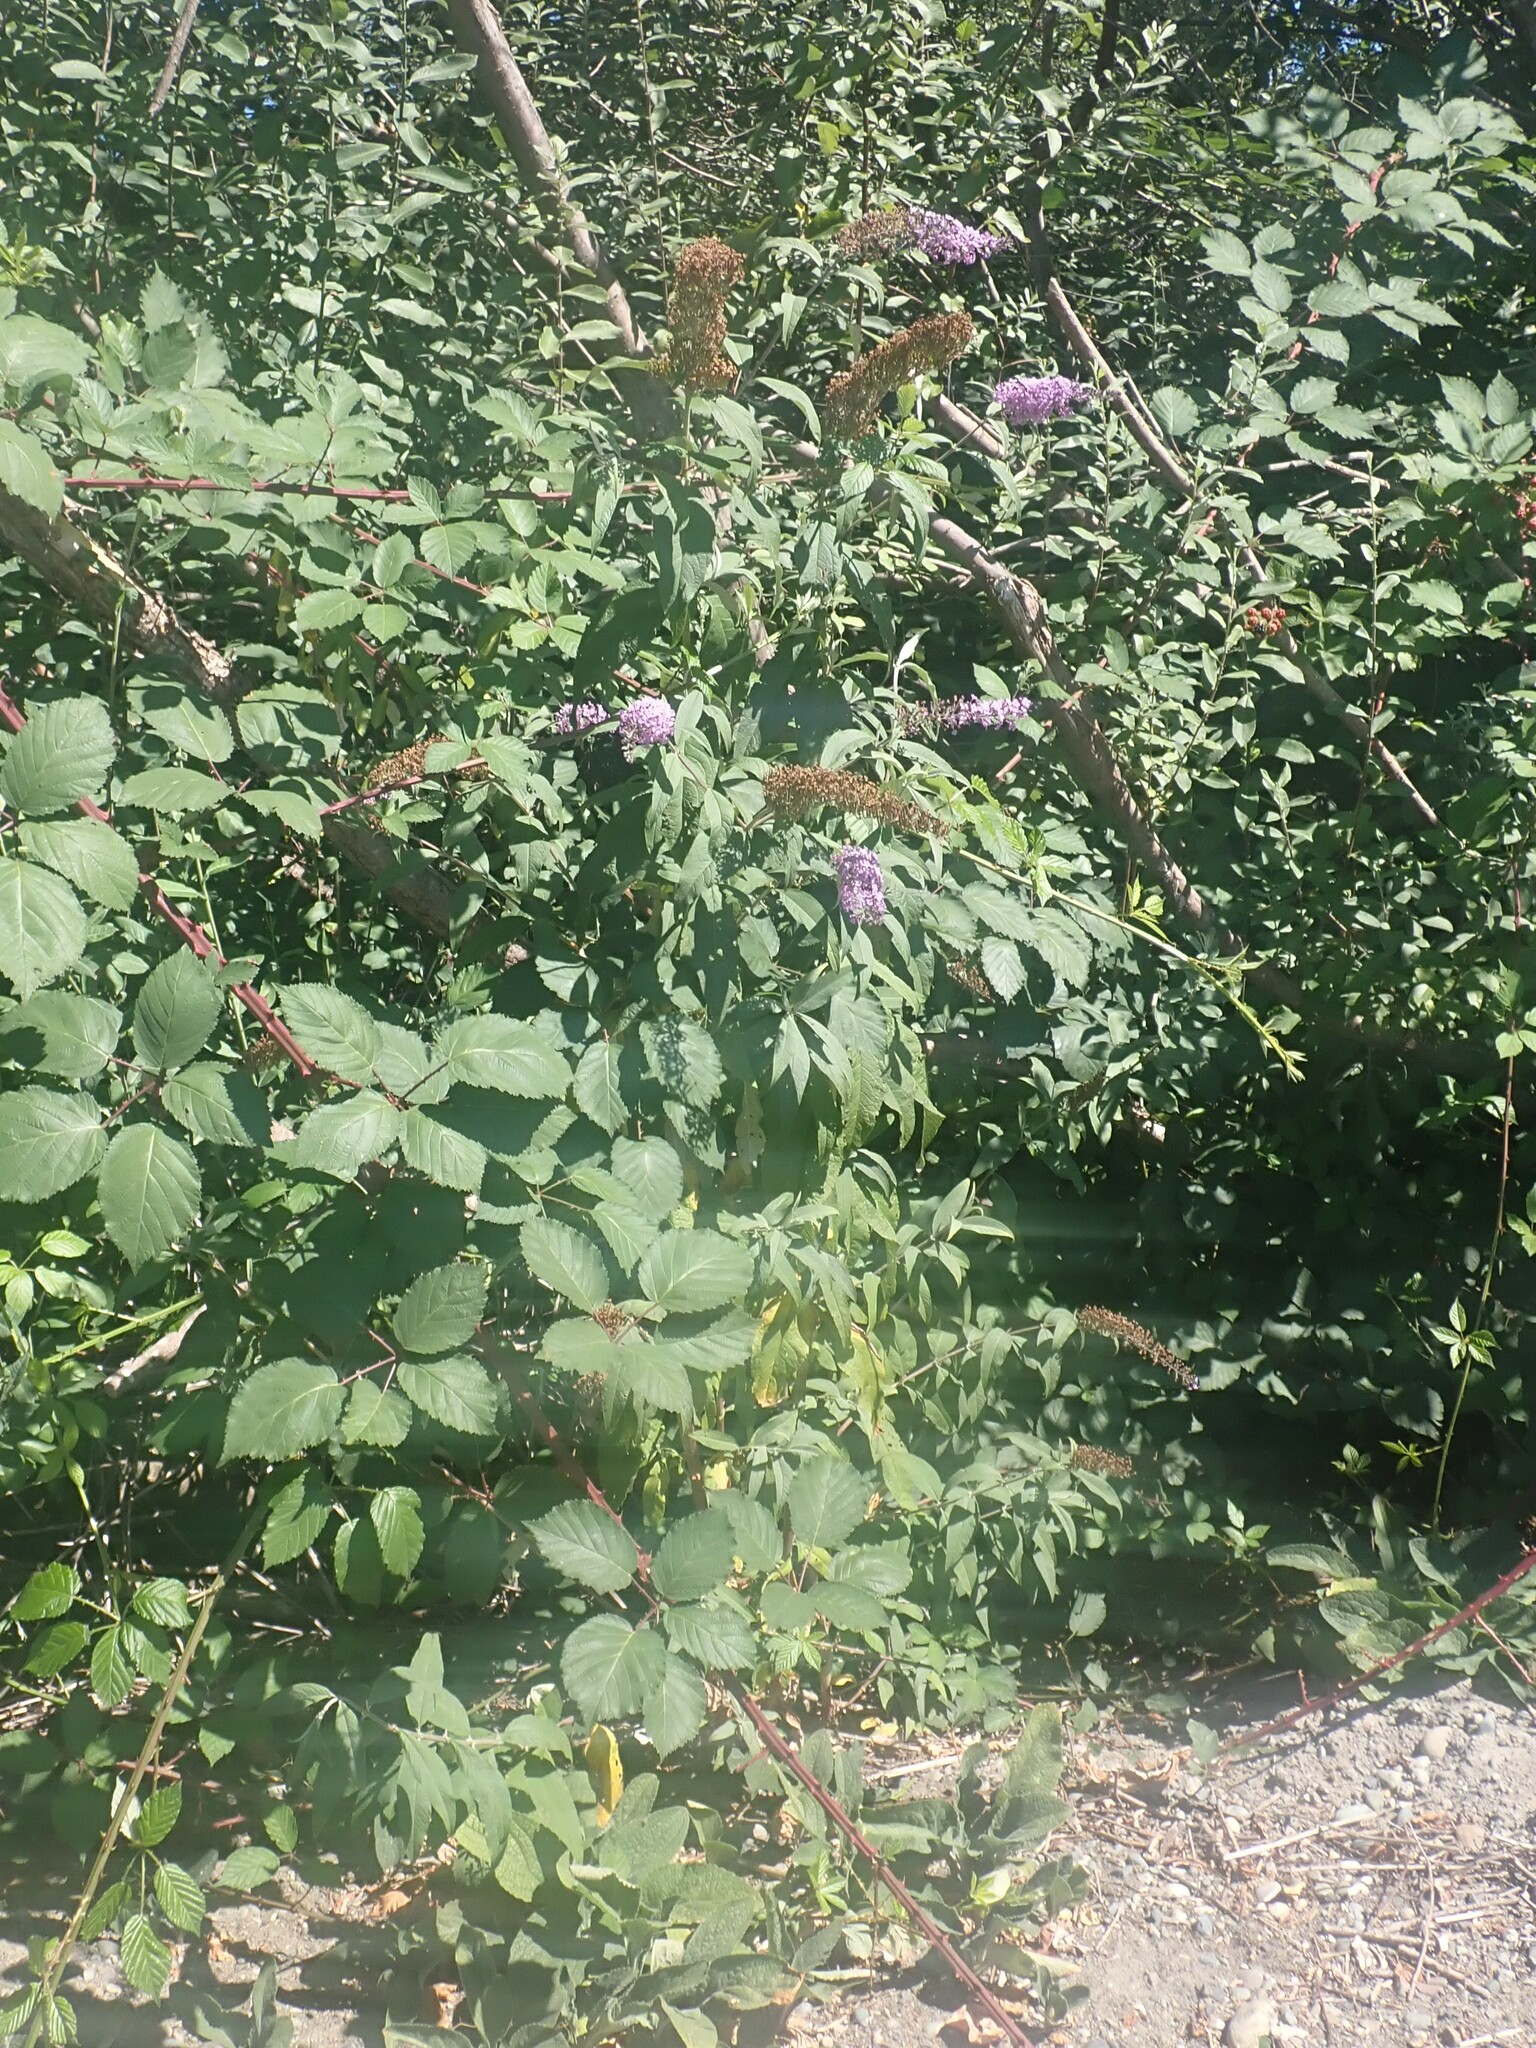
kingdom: Plantae
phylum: Tracheophyta
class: Magnoliopsida
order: Lamiales
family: Scrophulariaceae
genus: Buddleja
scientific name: Buddleja davidii
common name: Butterfly-bush
